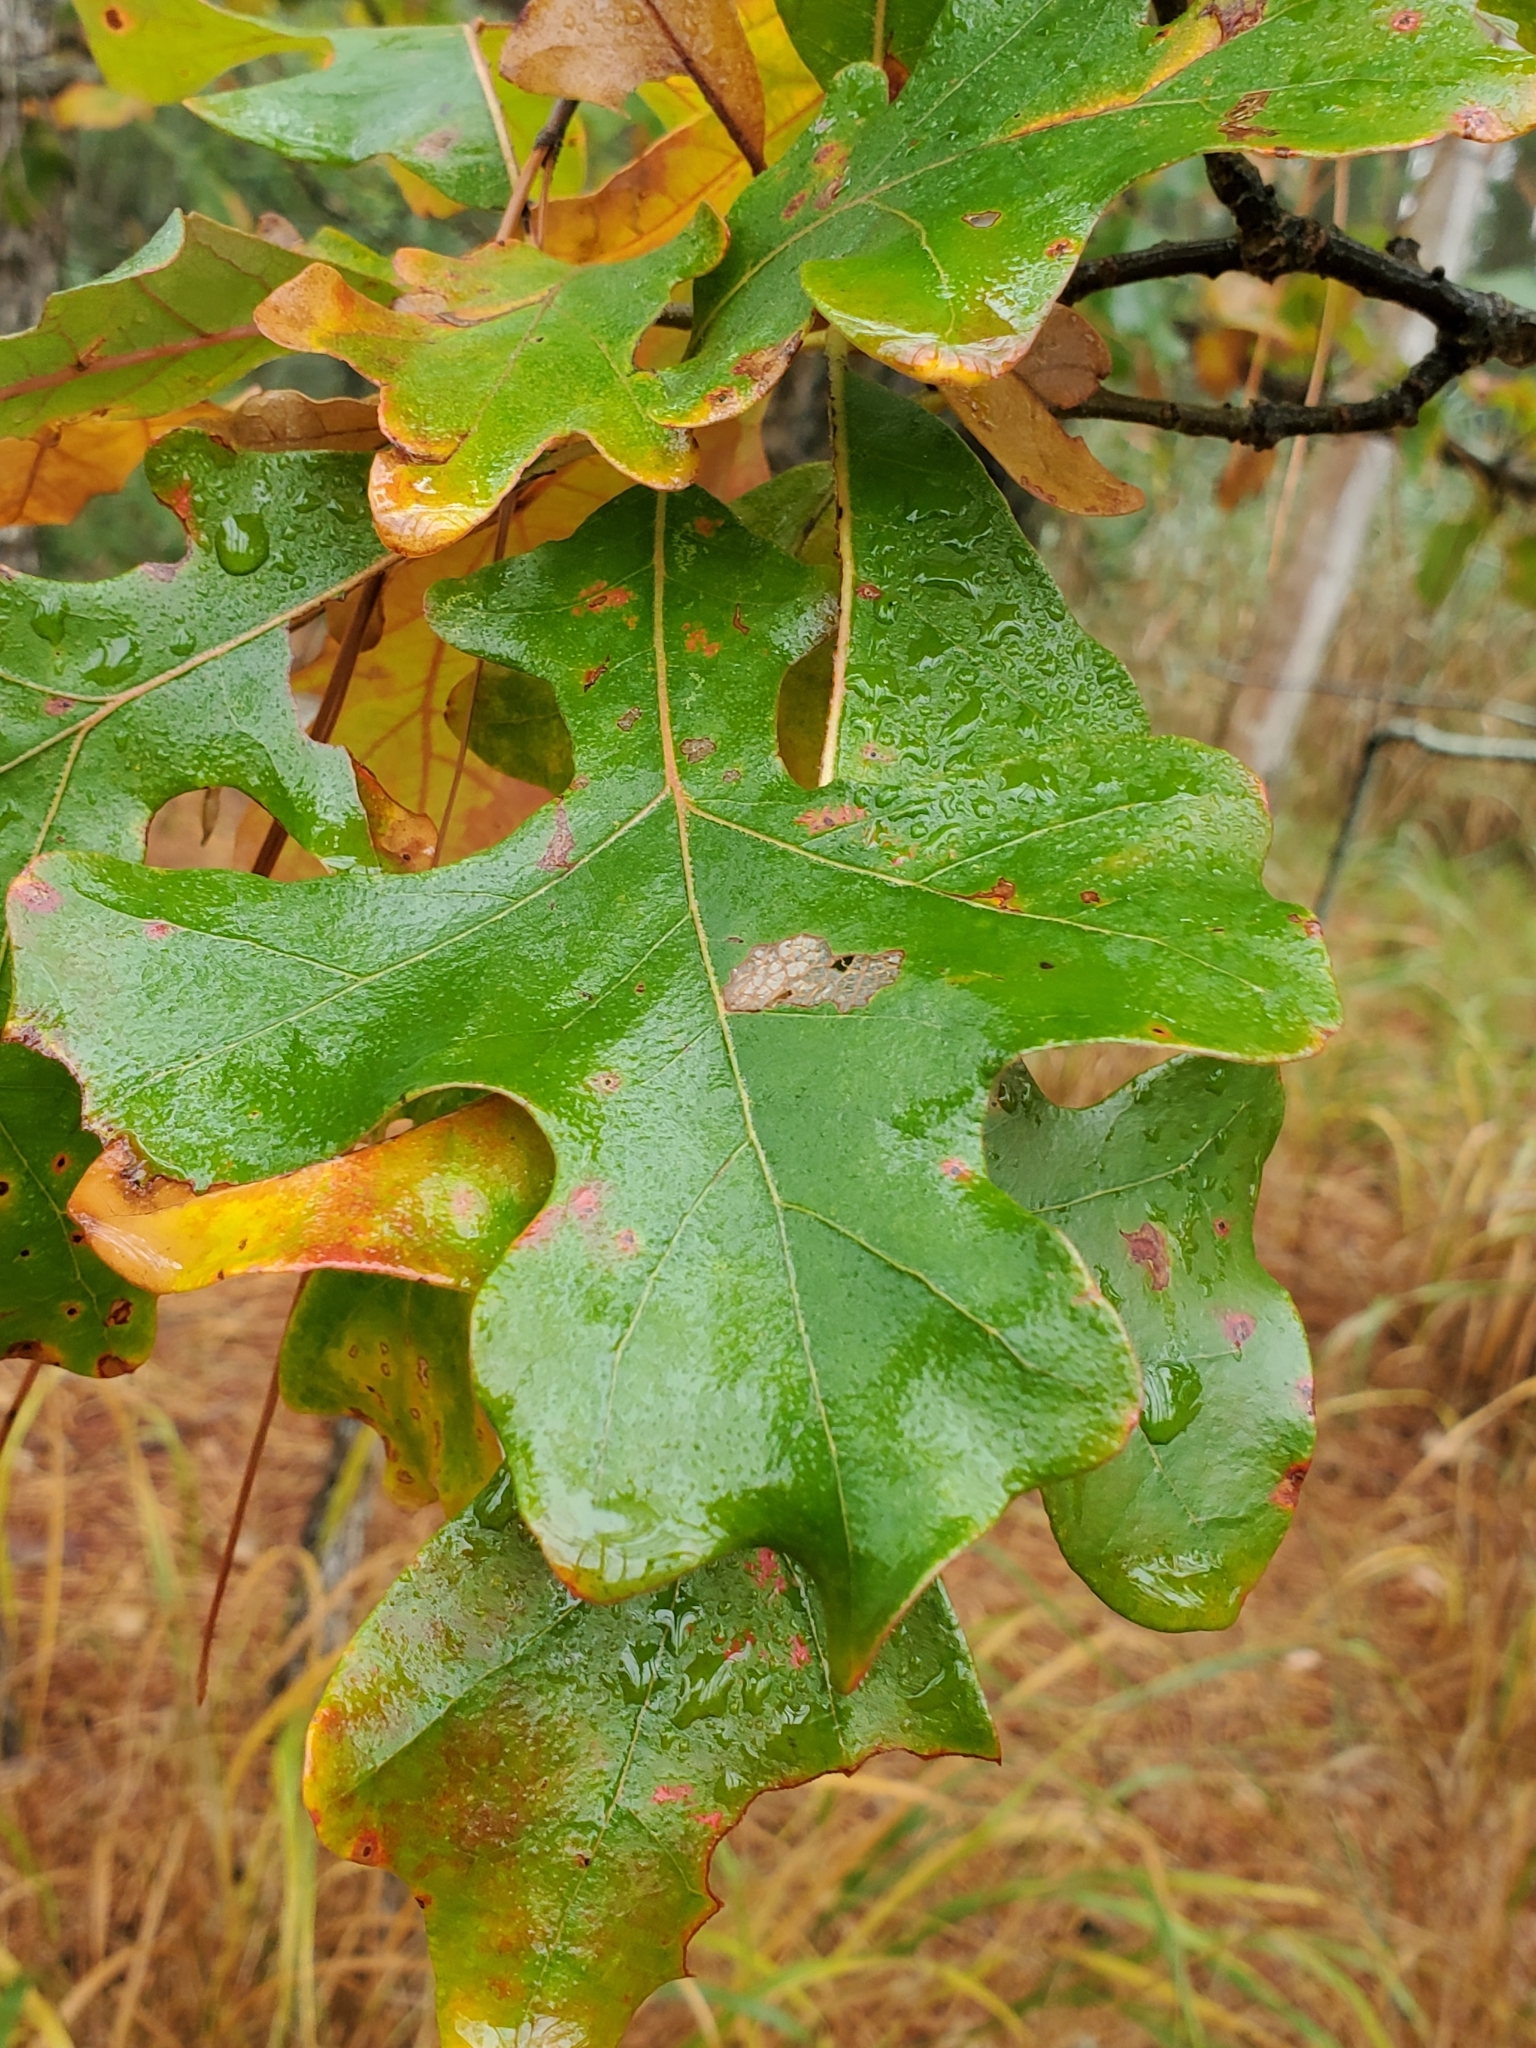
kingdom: Plantae
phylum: Tracheophyta
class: Magnoliopsida
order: Fagales
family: Fagaceae
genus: Quercus
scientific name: Quercus stellata
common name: Post oak
